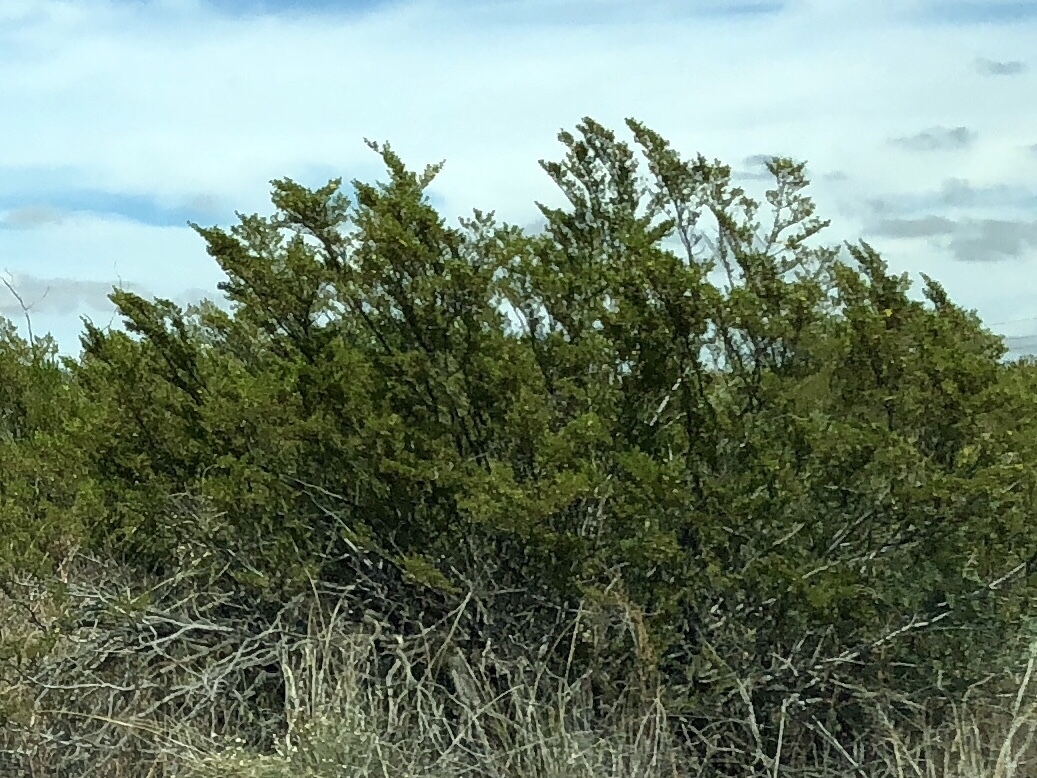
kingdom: Plantae
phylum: Tracheophyta
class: Magnoliopsida
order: Zygophyllales
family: Zygophyllaceae
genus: Larrea
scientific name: Larrea tridentata
